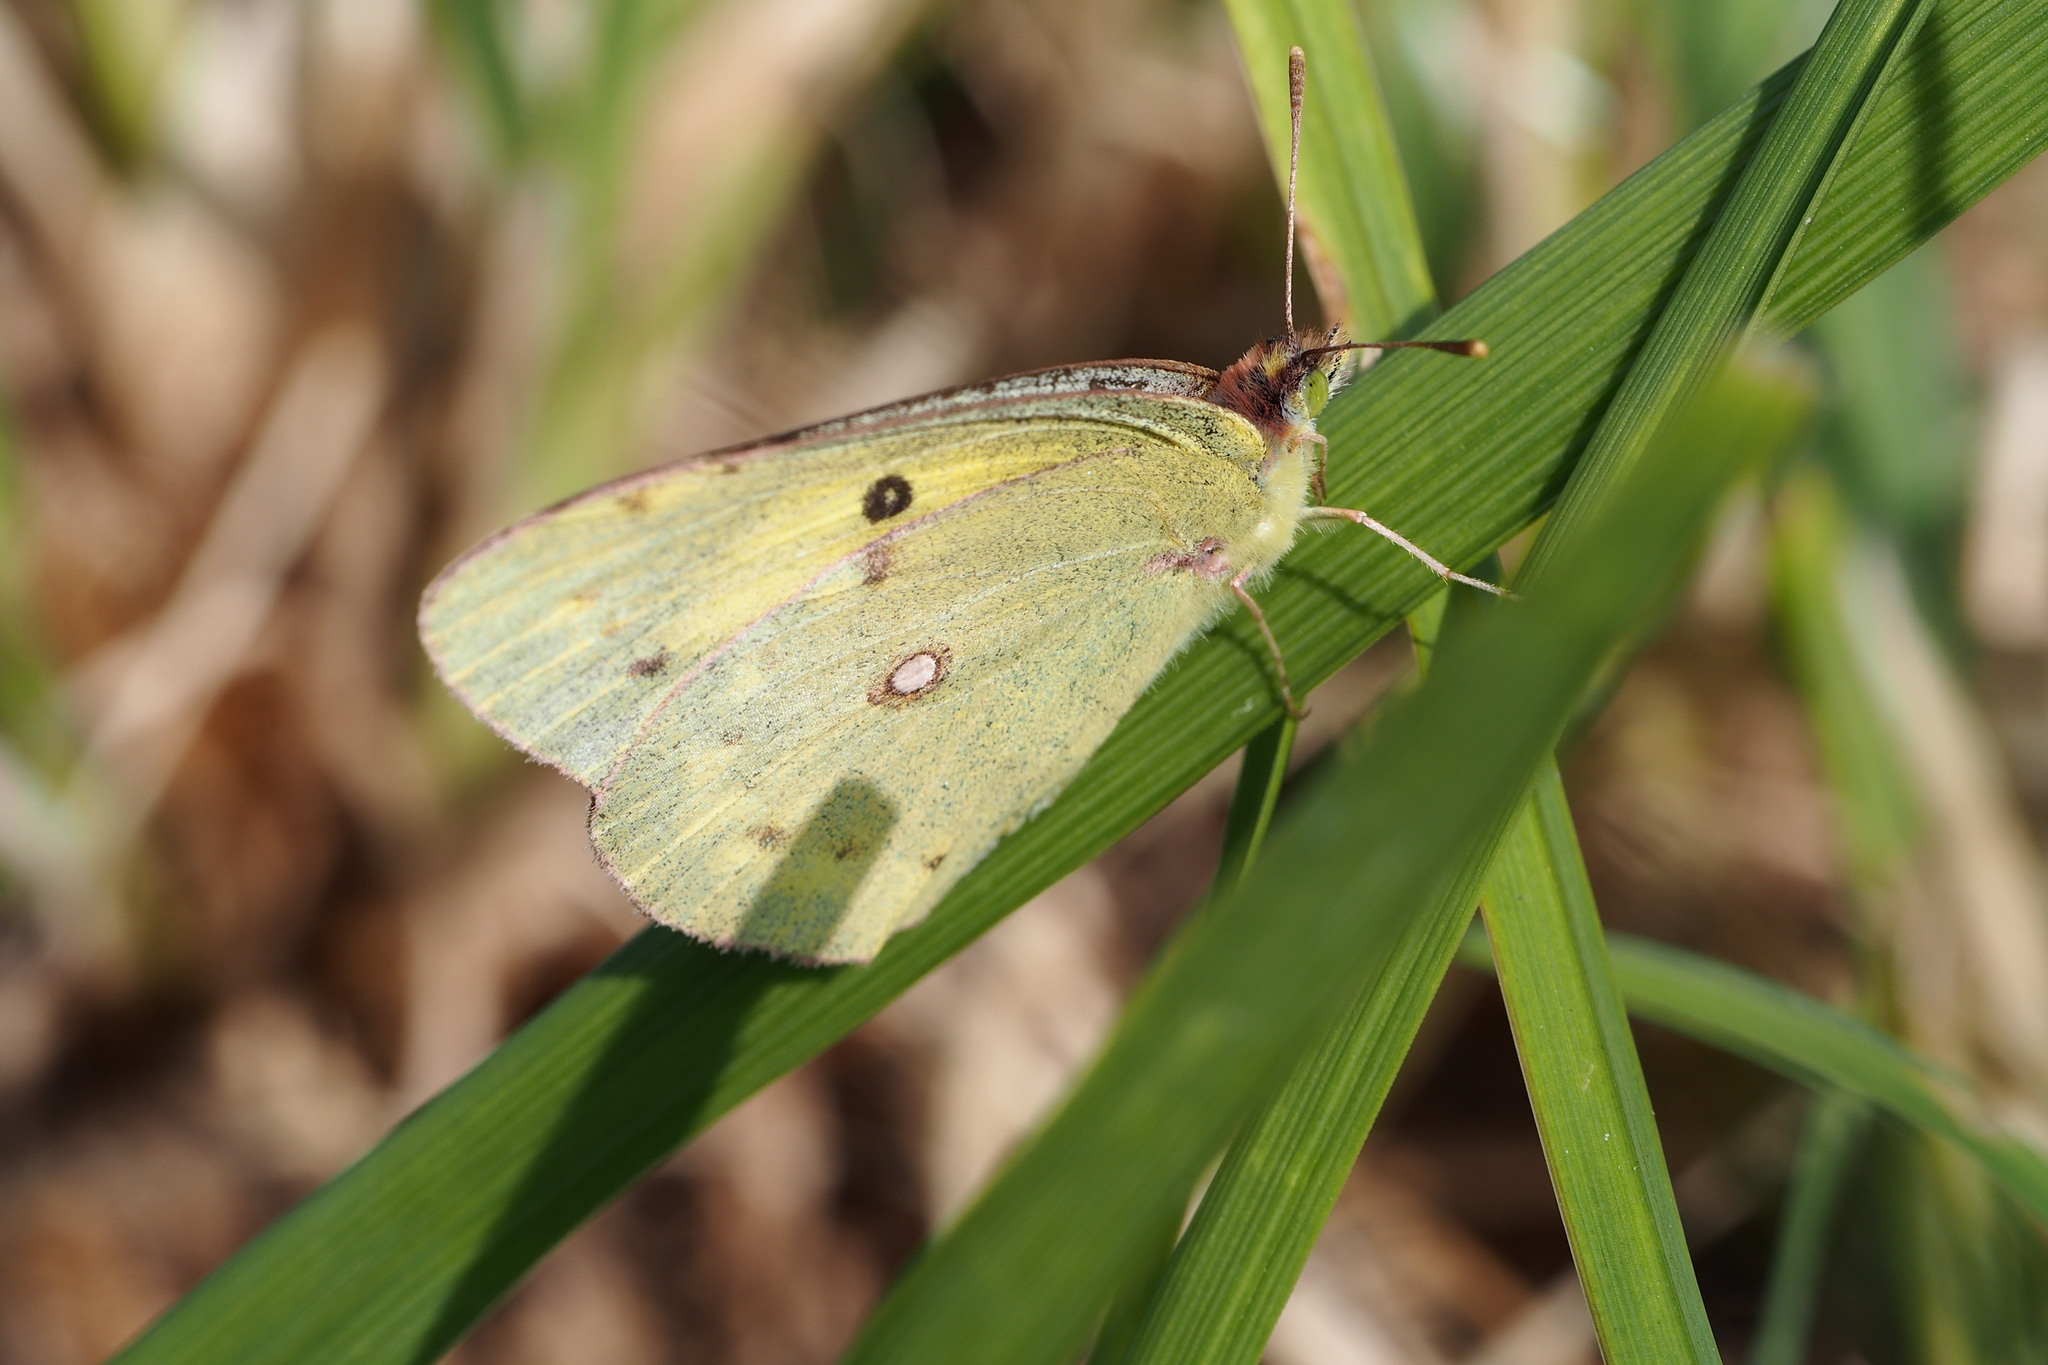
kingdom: Animalia
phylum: Arthropoda
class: Insecta
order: Lepidoptera
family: Pieridae
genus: Colias
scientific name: Colias poliographus
